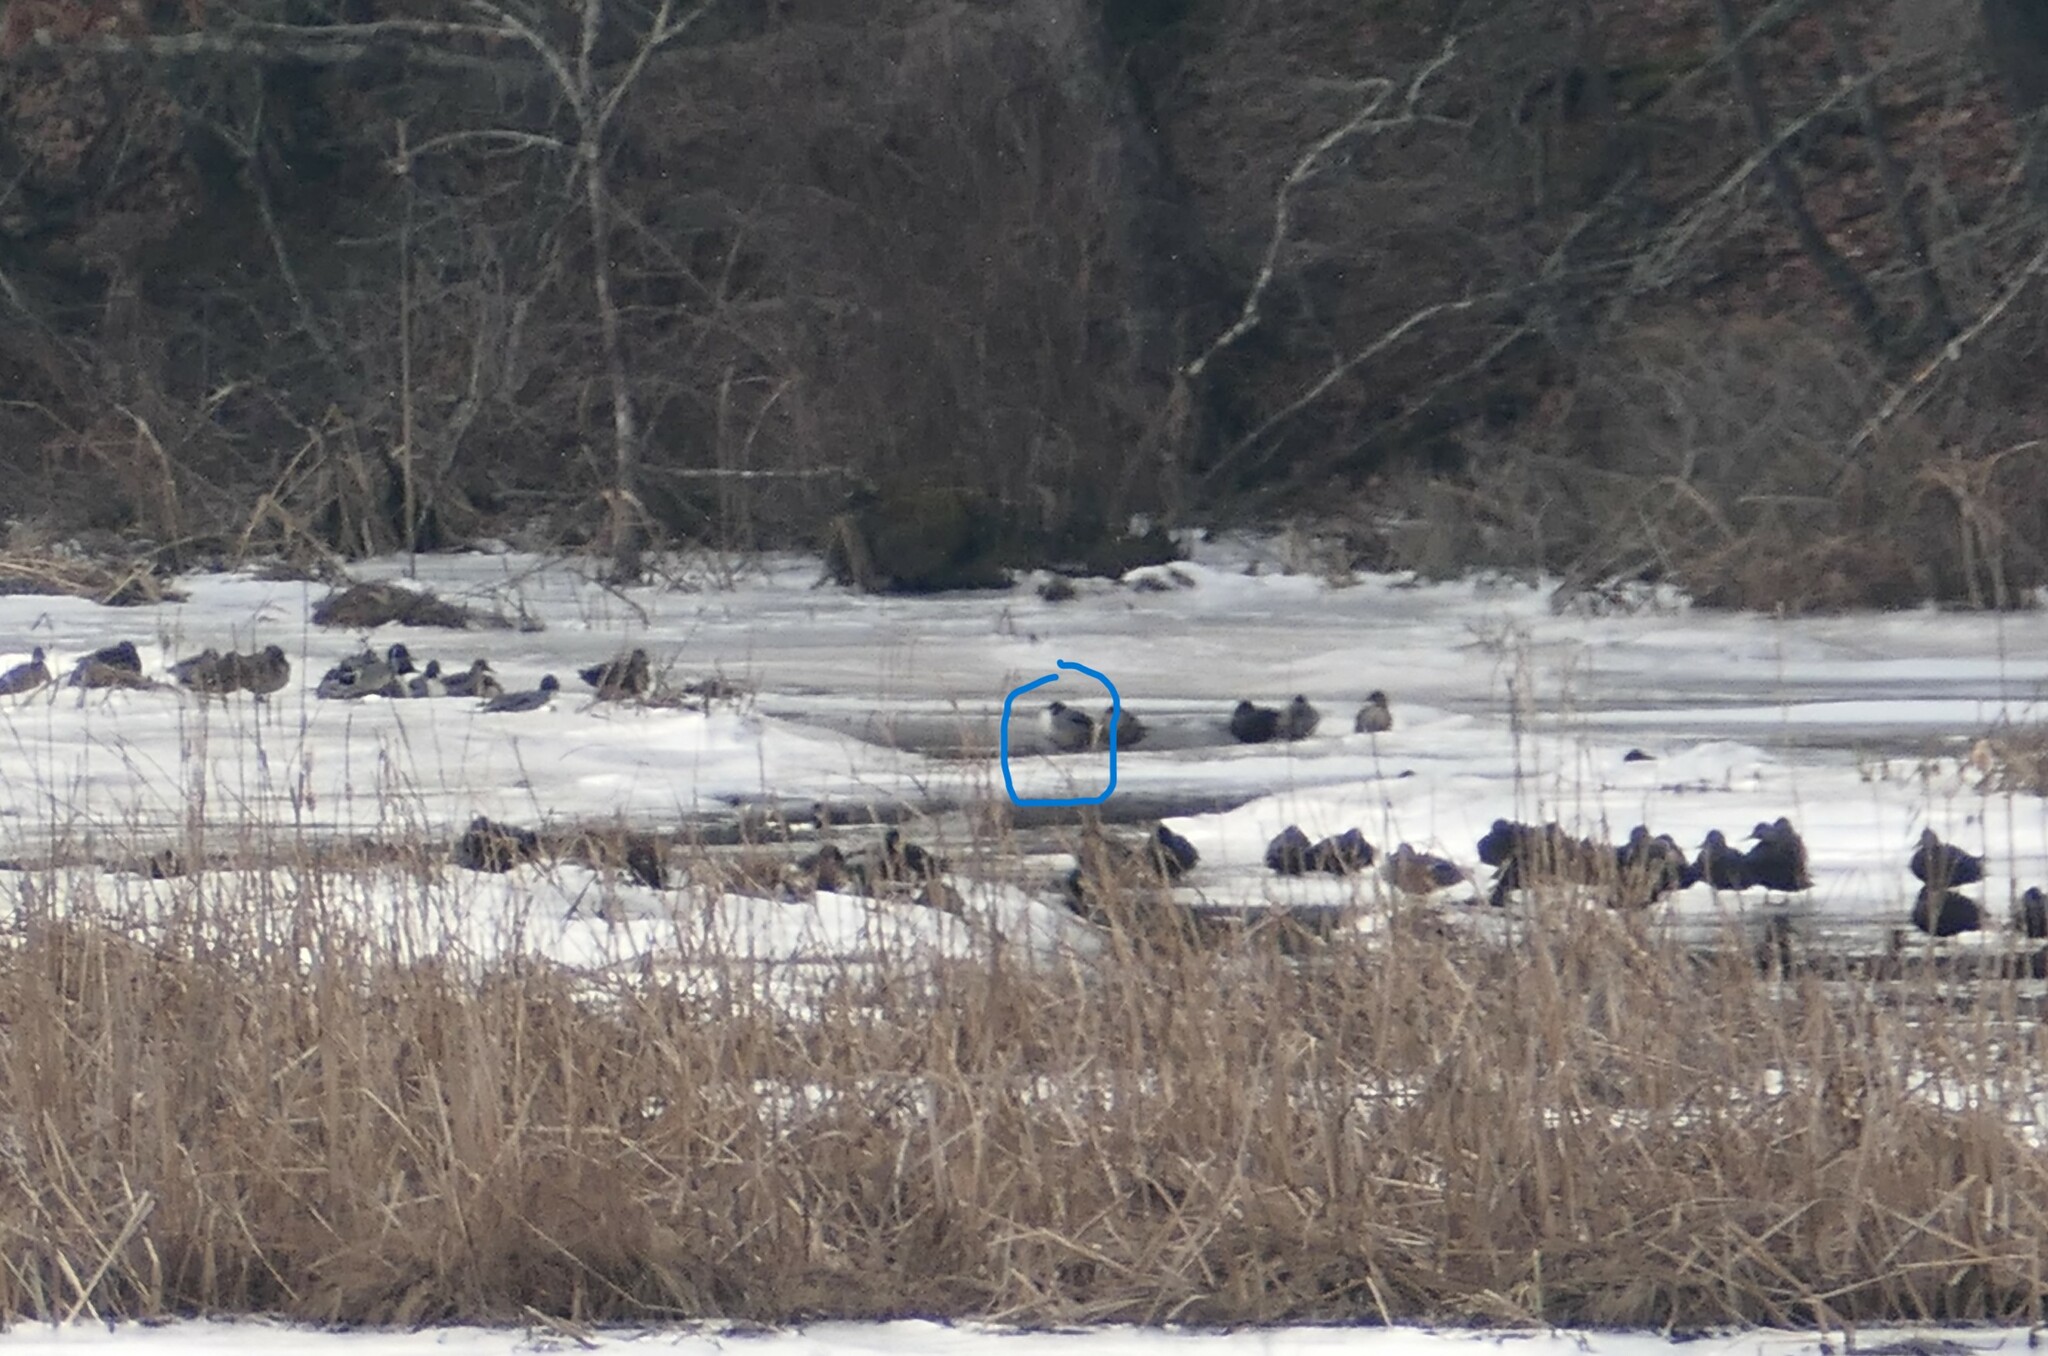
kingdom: Animalia
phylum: Chordata
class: Aves
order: Anseriformes
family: Anatidae
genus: Anas
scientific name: Anas acuta
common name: Northern pintail
